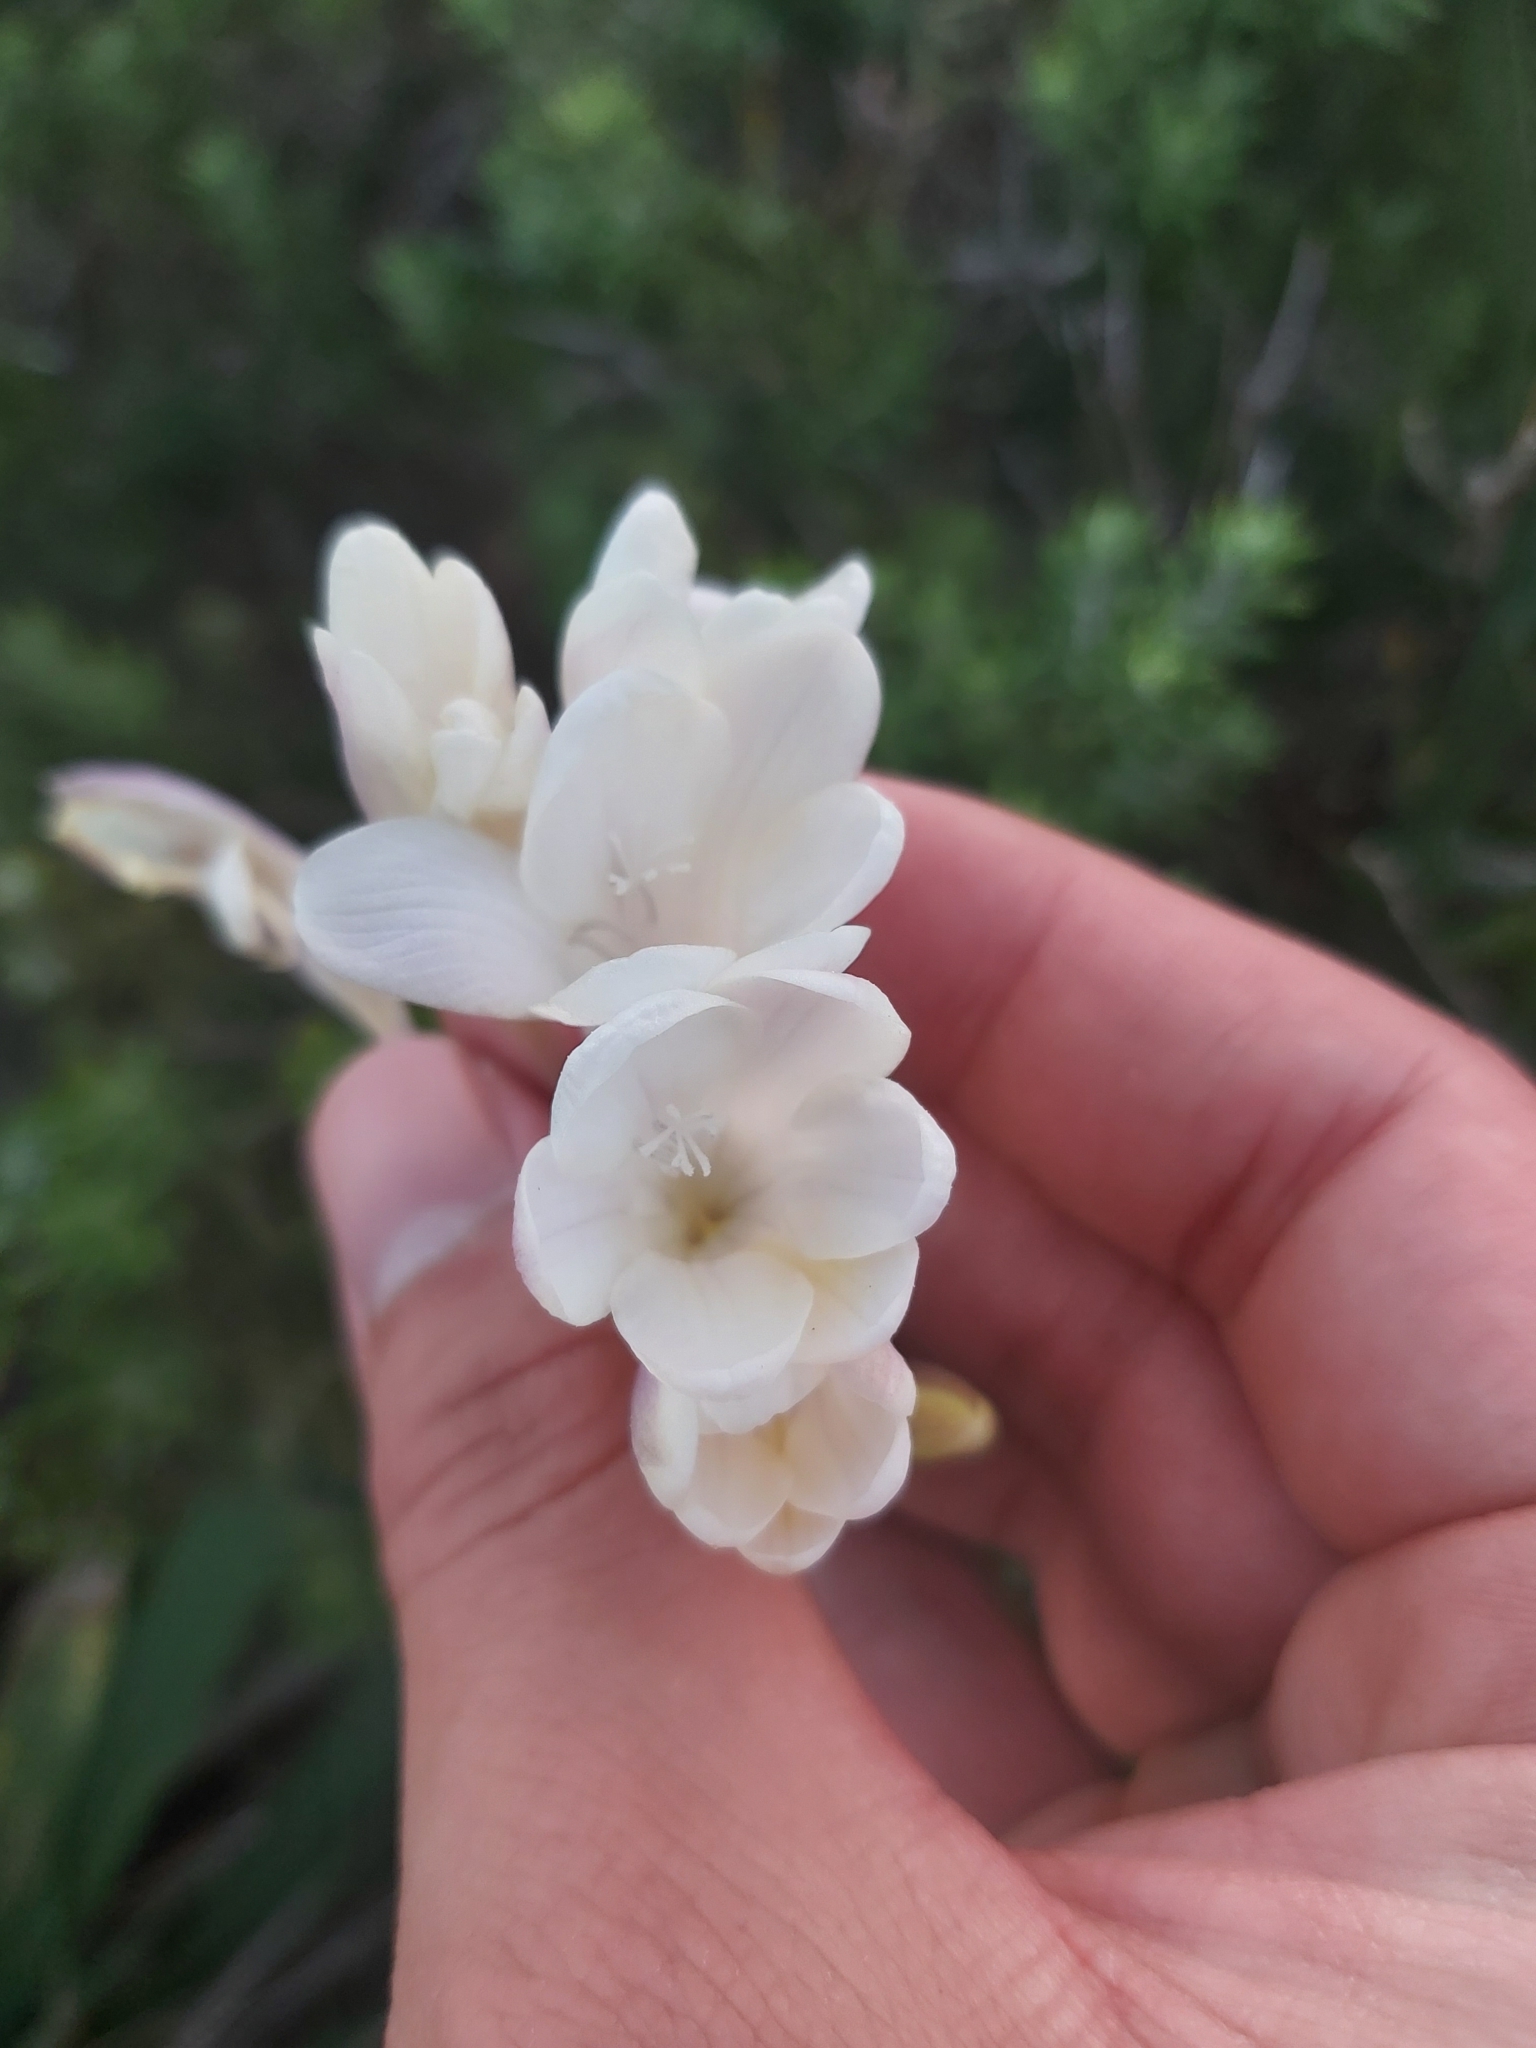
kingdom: Plantae
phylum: Tracheophyta
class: Liliopsida
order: Asparagales
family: Iridaceae
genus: Freesia
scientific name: Freesia leichtlinii
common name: Freesia
